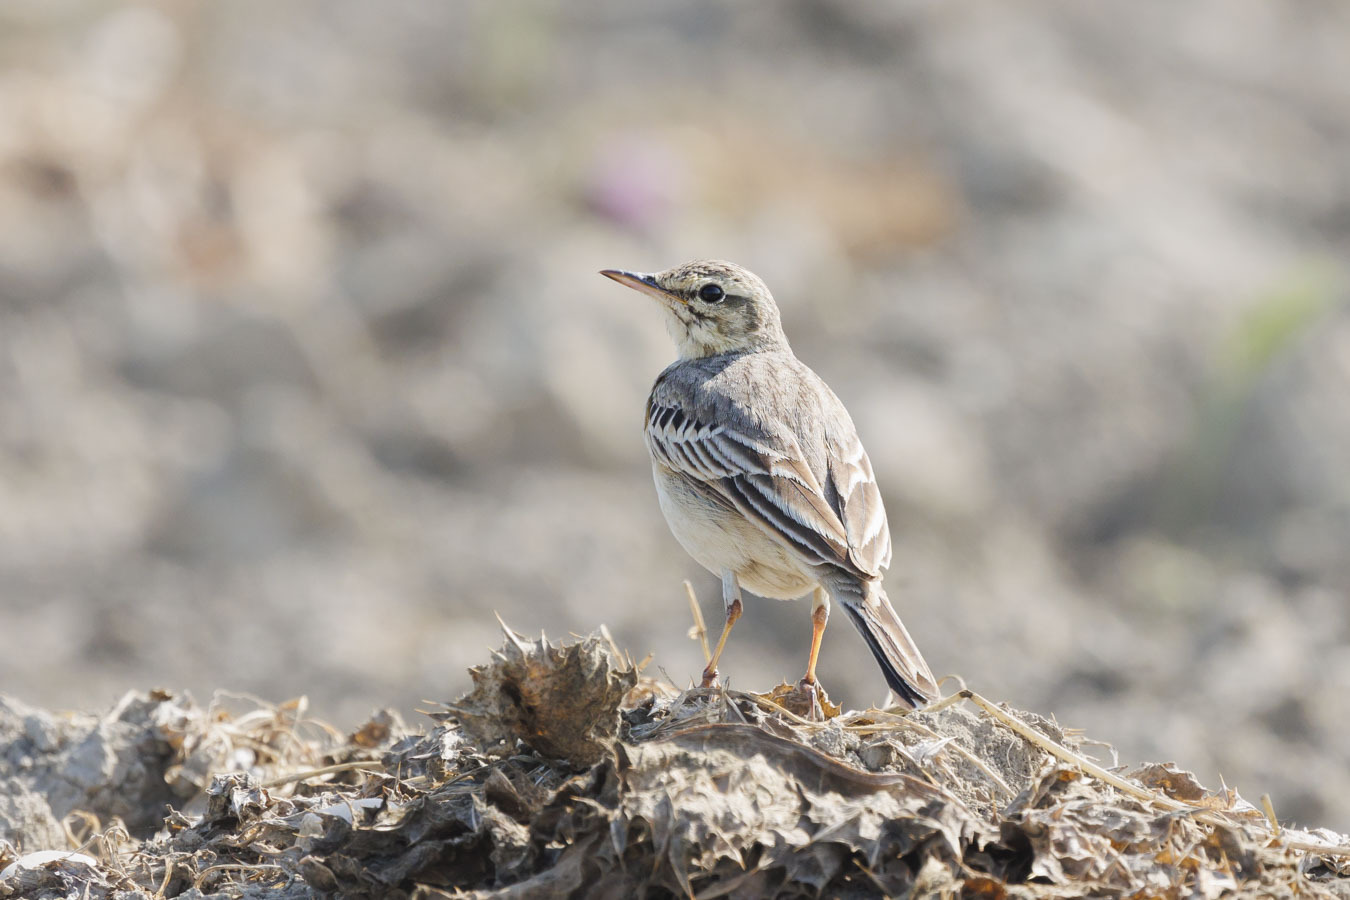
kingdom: Animalia
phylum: Chordata
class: Aves
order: Passeriformes
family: Motacillidae
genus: Anthus
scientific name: Anthus campestris
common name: Tawny pipit
